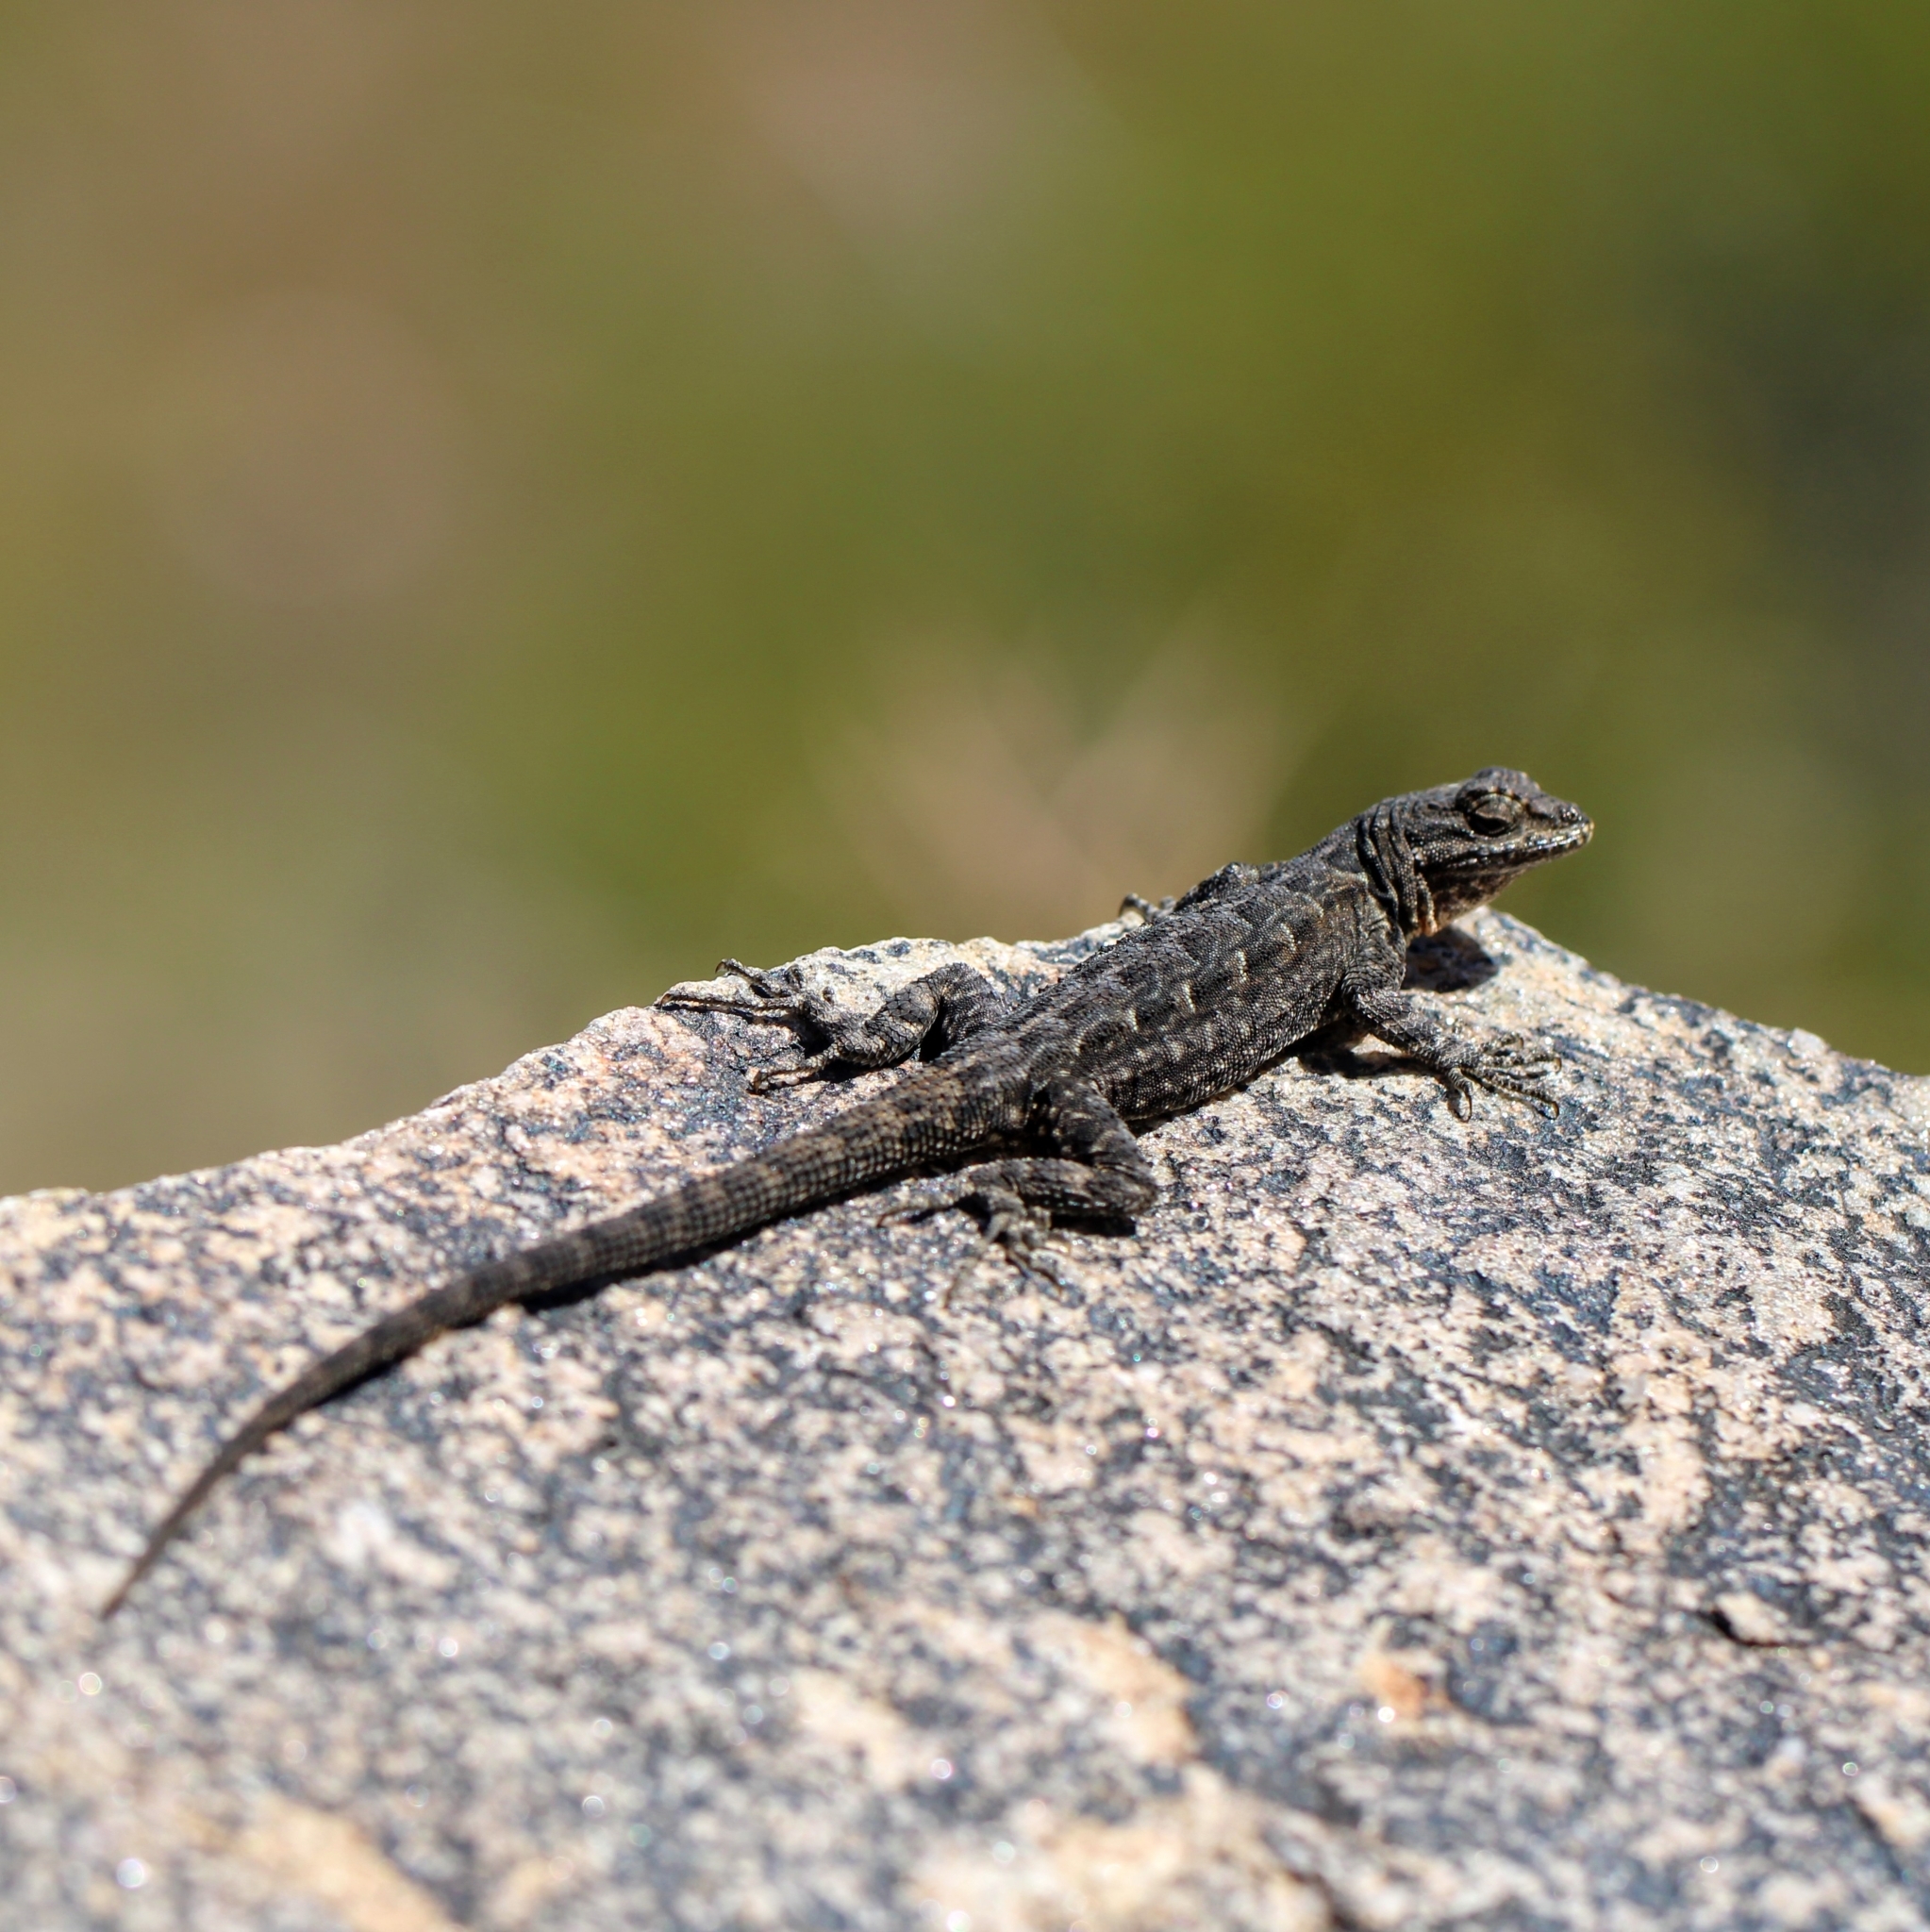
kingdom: Animalia
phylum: Chordata
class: Squamata
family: Phrynosomatidae
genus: Urosaurus
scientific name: Urosaurus ornatus
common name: Ornate tree lizard
